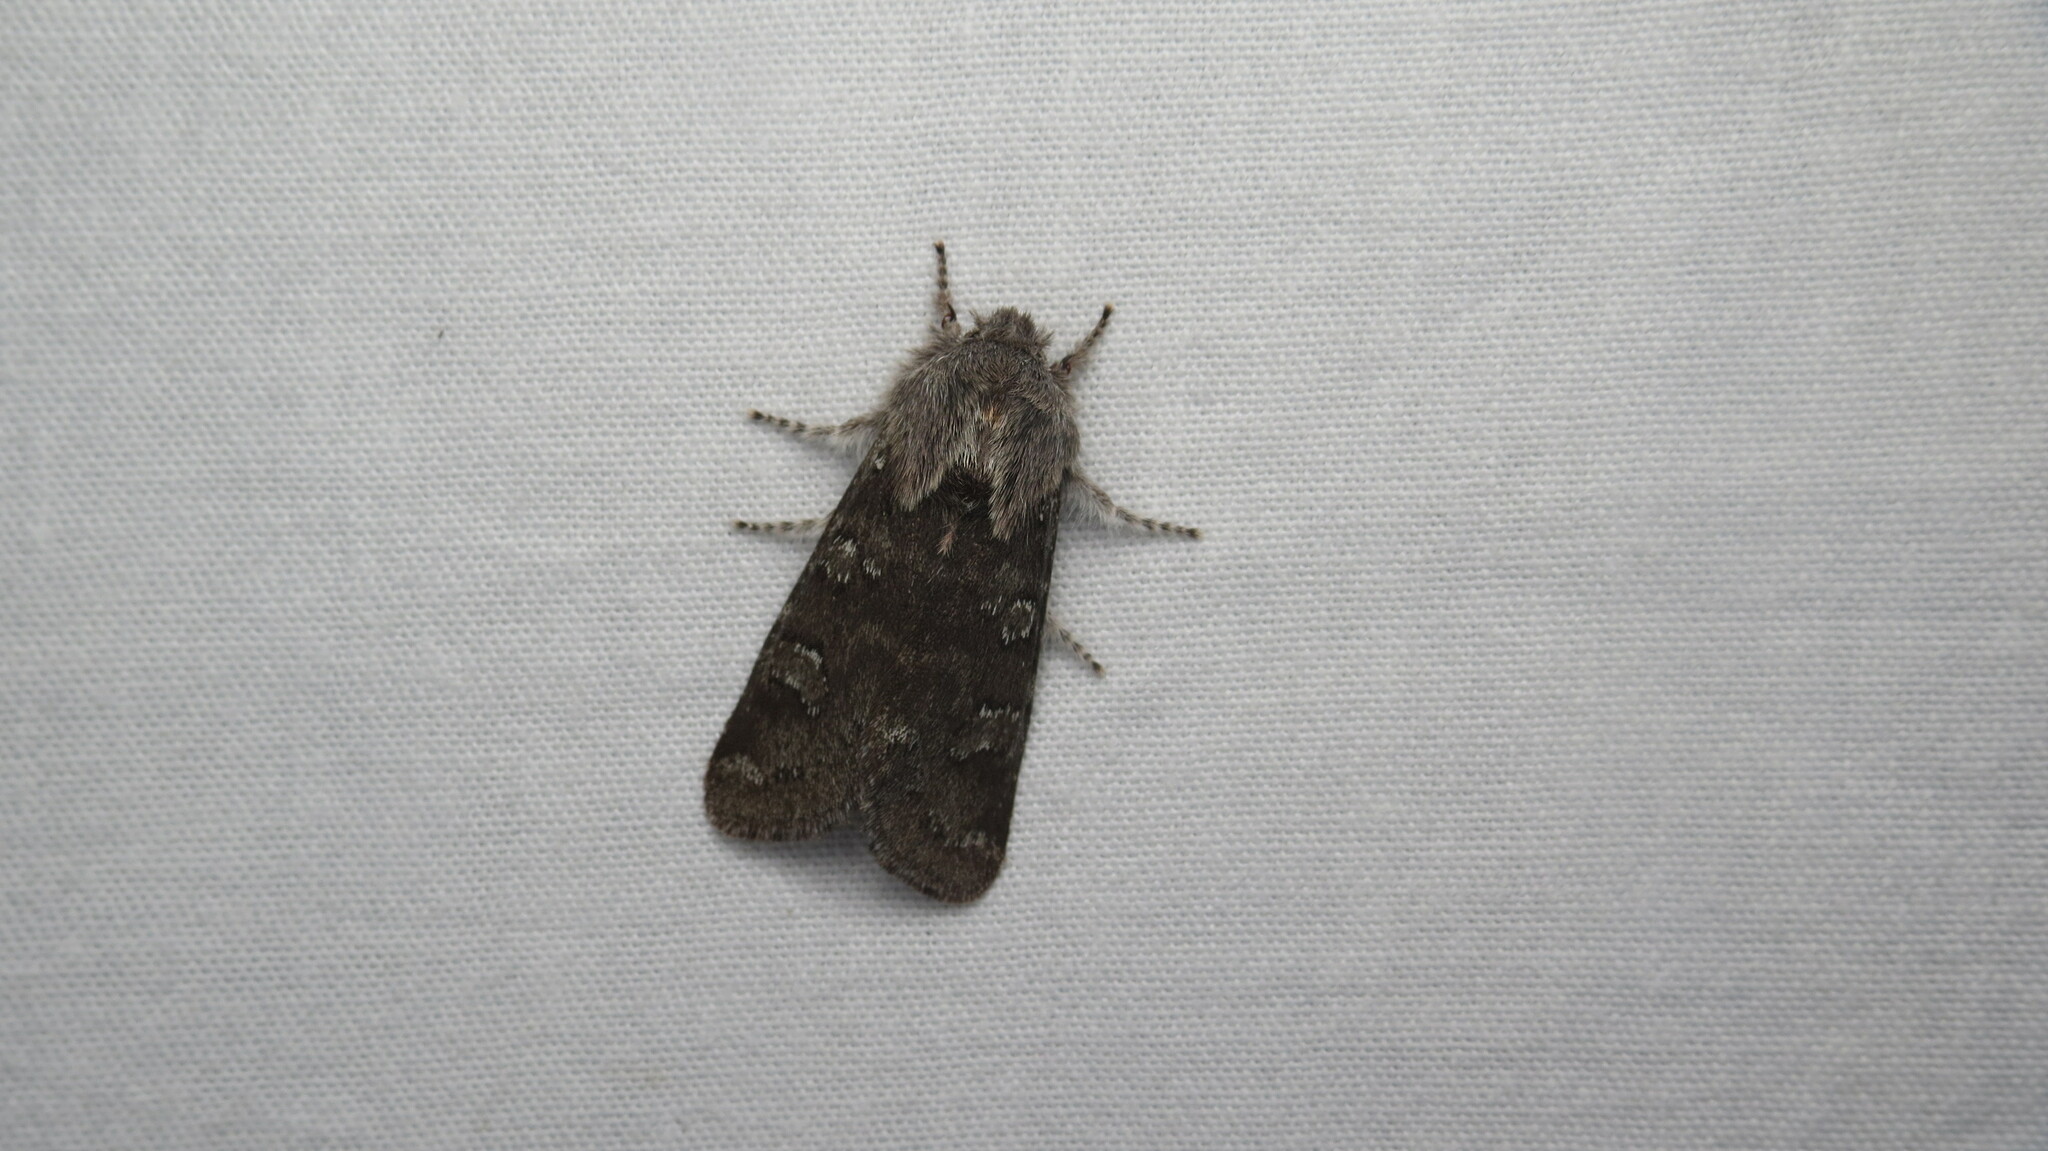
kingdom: Animalia
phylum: Arthropoda
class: Insecta
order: Lepidoptera
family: Noctuidae
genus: Psaphida
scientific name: Psaphida rolandi
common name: Roland's sallow
